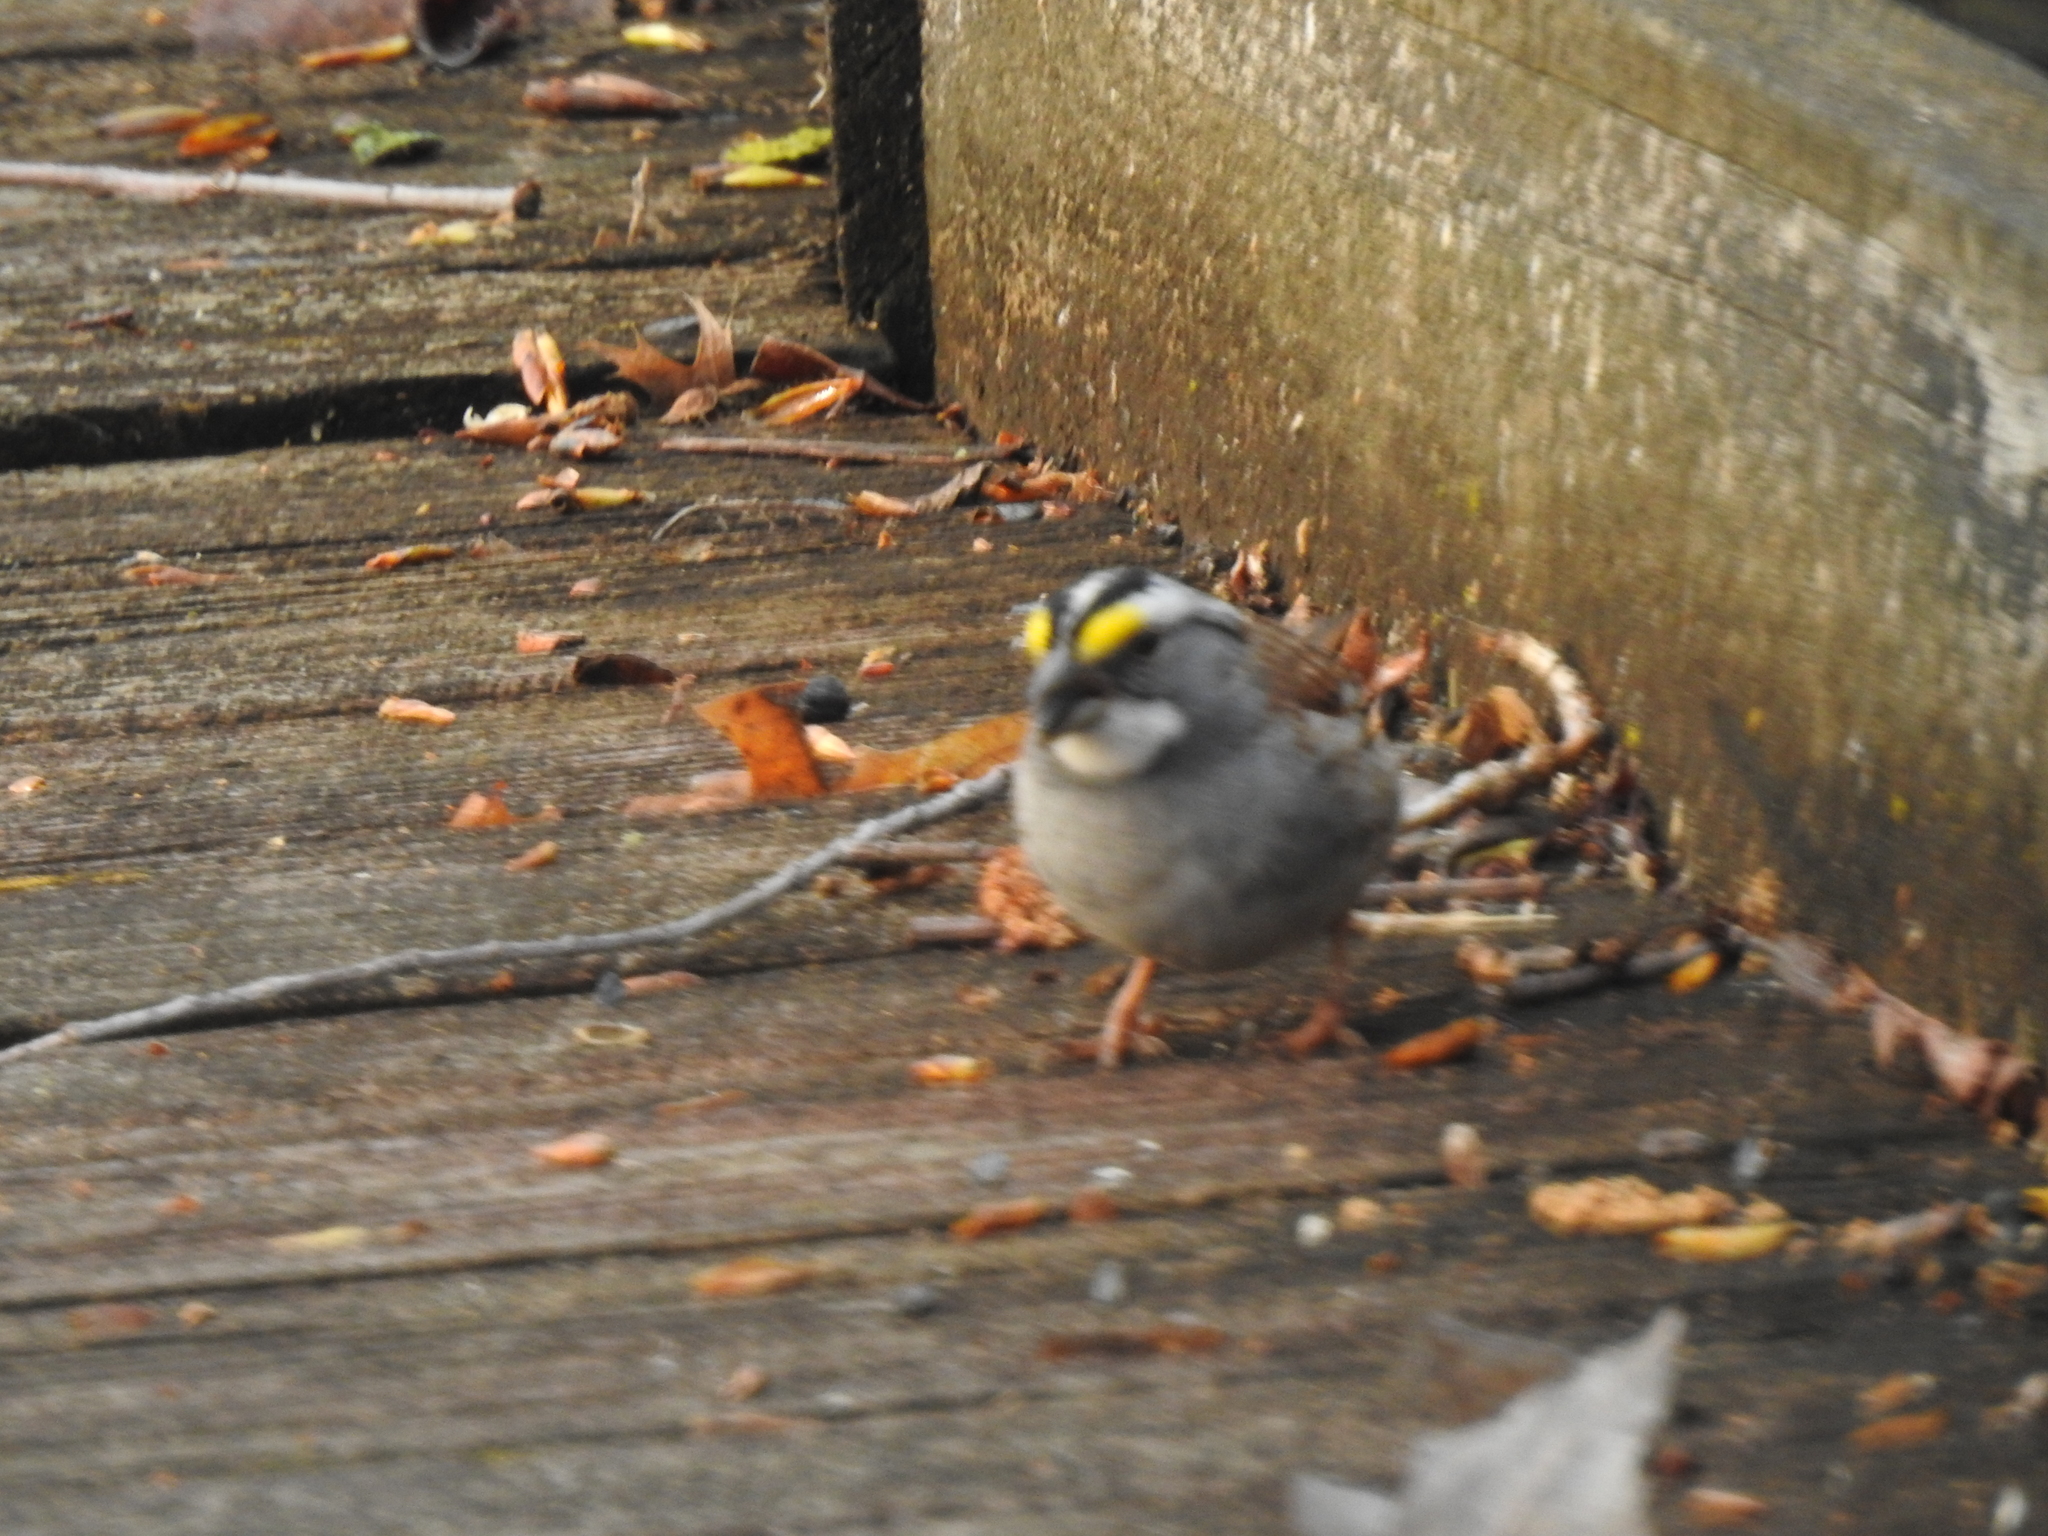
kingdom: Animalia
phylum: Chordata
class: Aves
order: Passeriformes
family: Passerellidae
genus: Zonotrichia
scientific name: Zonotrichia albicollis
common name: White-throated sparrow
